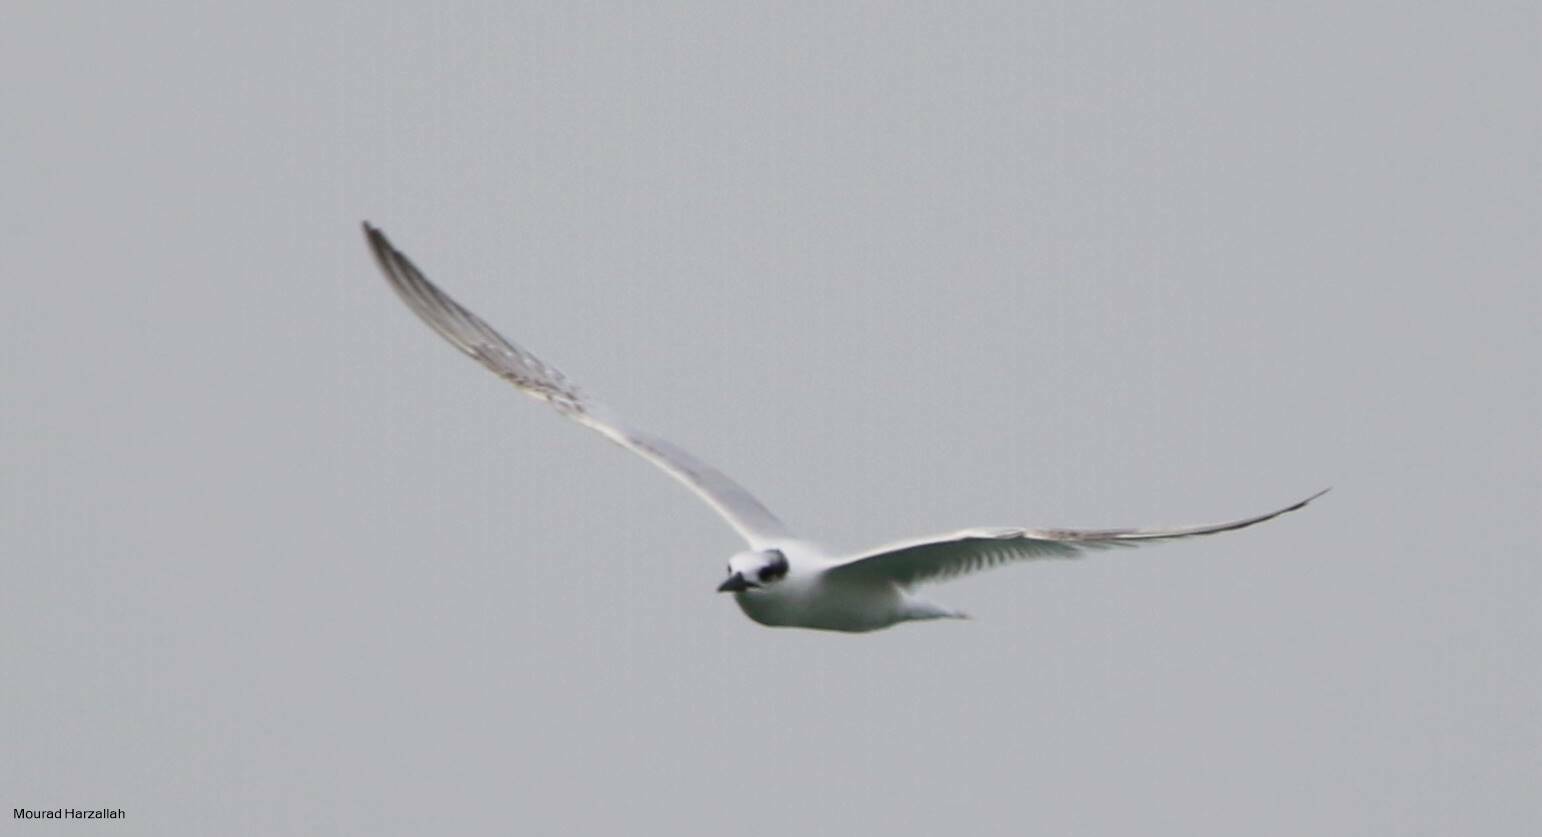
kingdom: Animalia
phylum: Chordata
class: Aves
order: Charadriiformes
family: Laridae
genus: Thalasseus
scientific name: Thalasseus sandvicensis
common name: Sandwich tern
